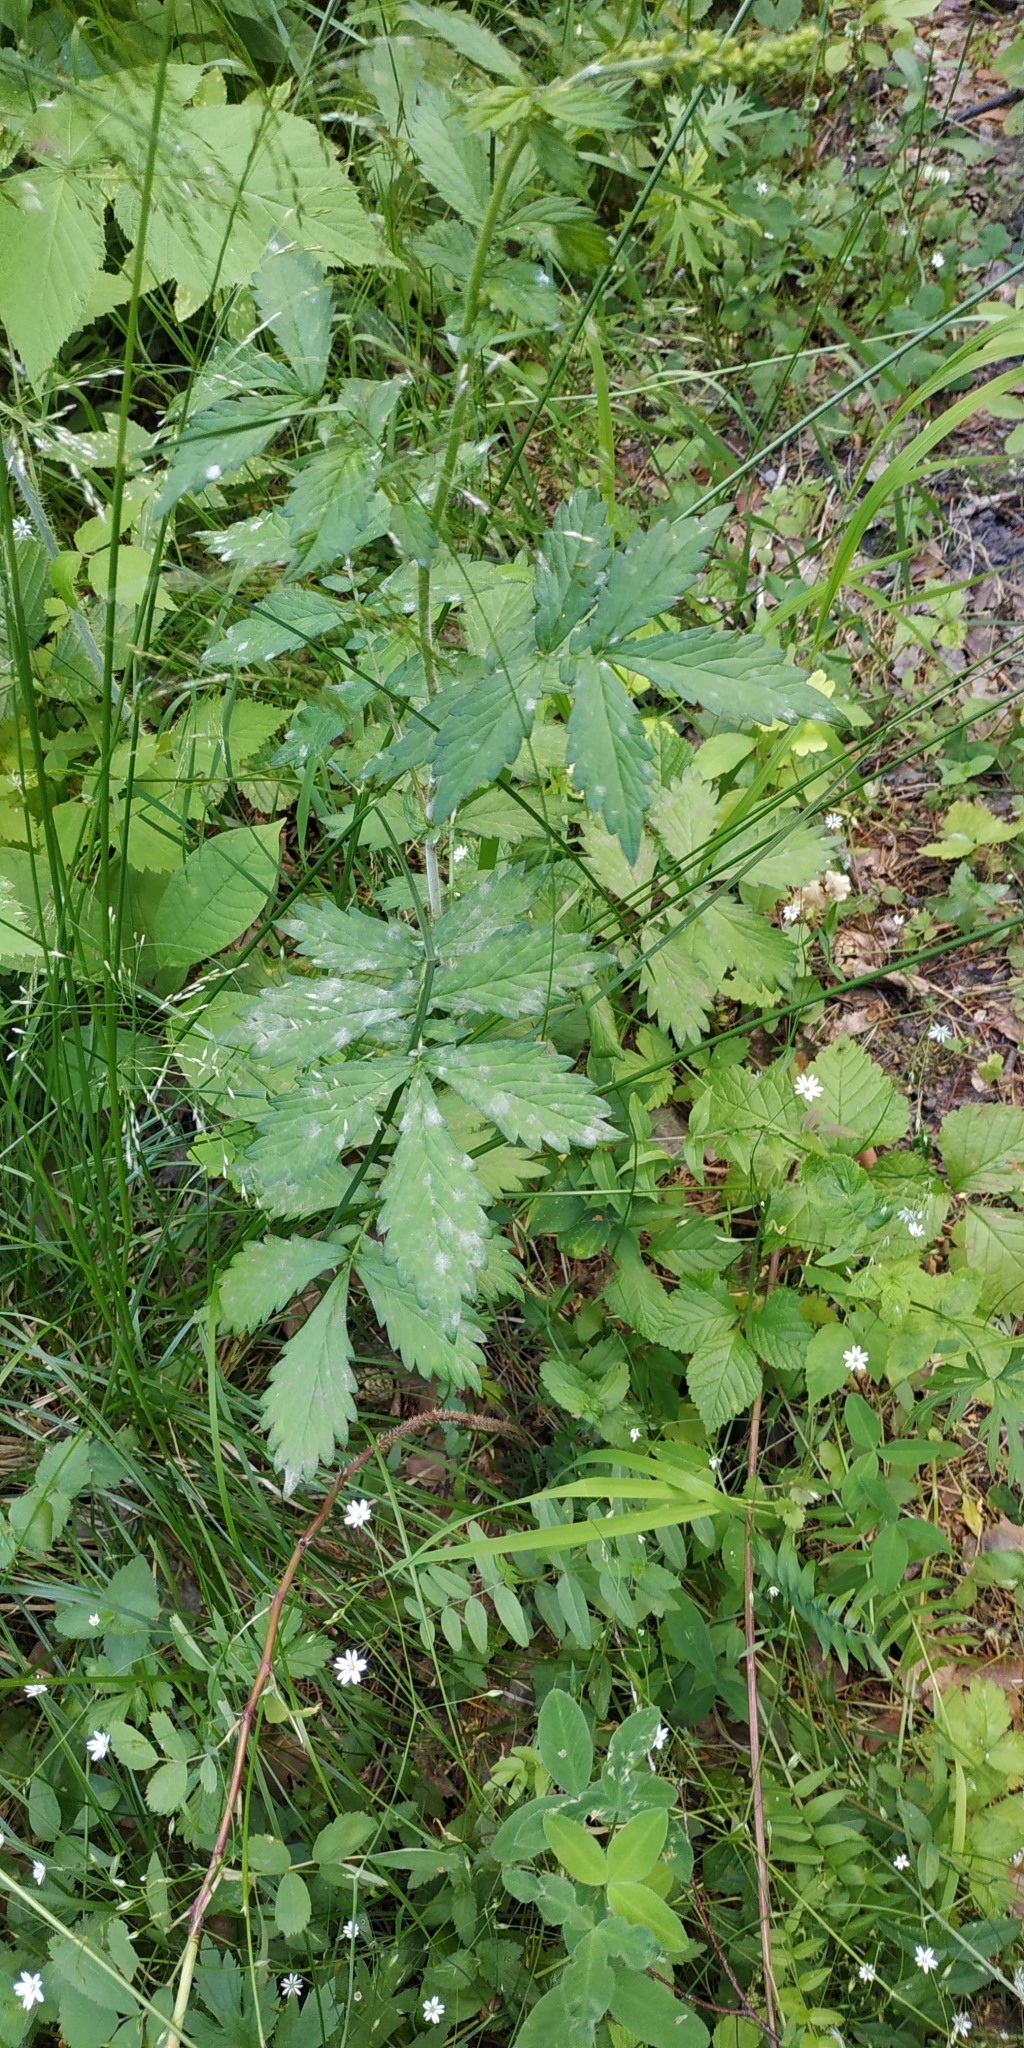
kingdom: Plantae
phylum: Tracheophyta
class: Magnoliopsida
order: Rosales
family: Rosaceae
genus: Agrimonia
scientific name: Agrimonia pilosa
